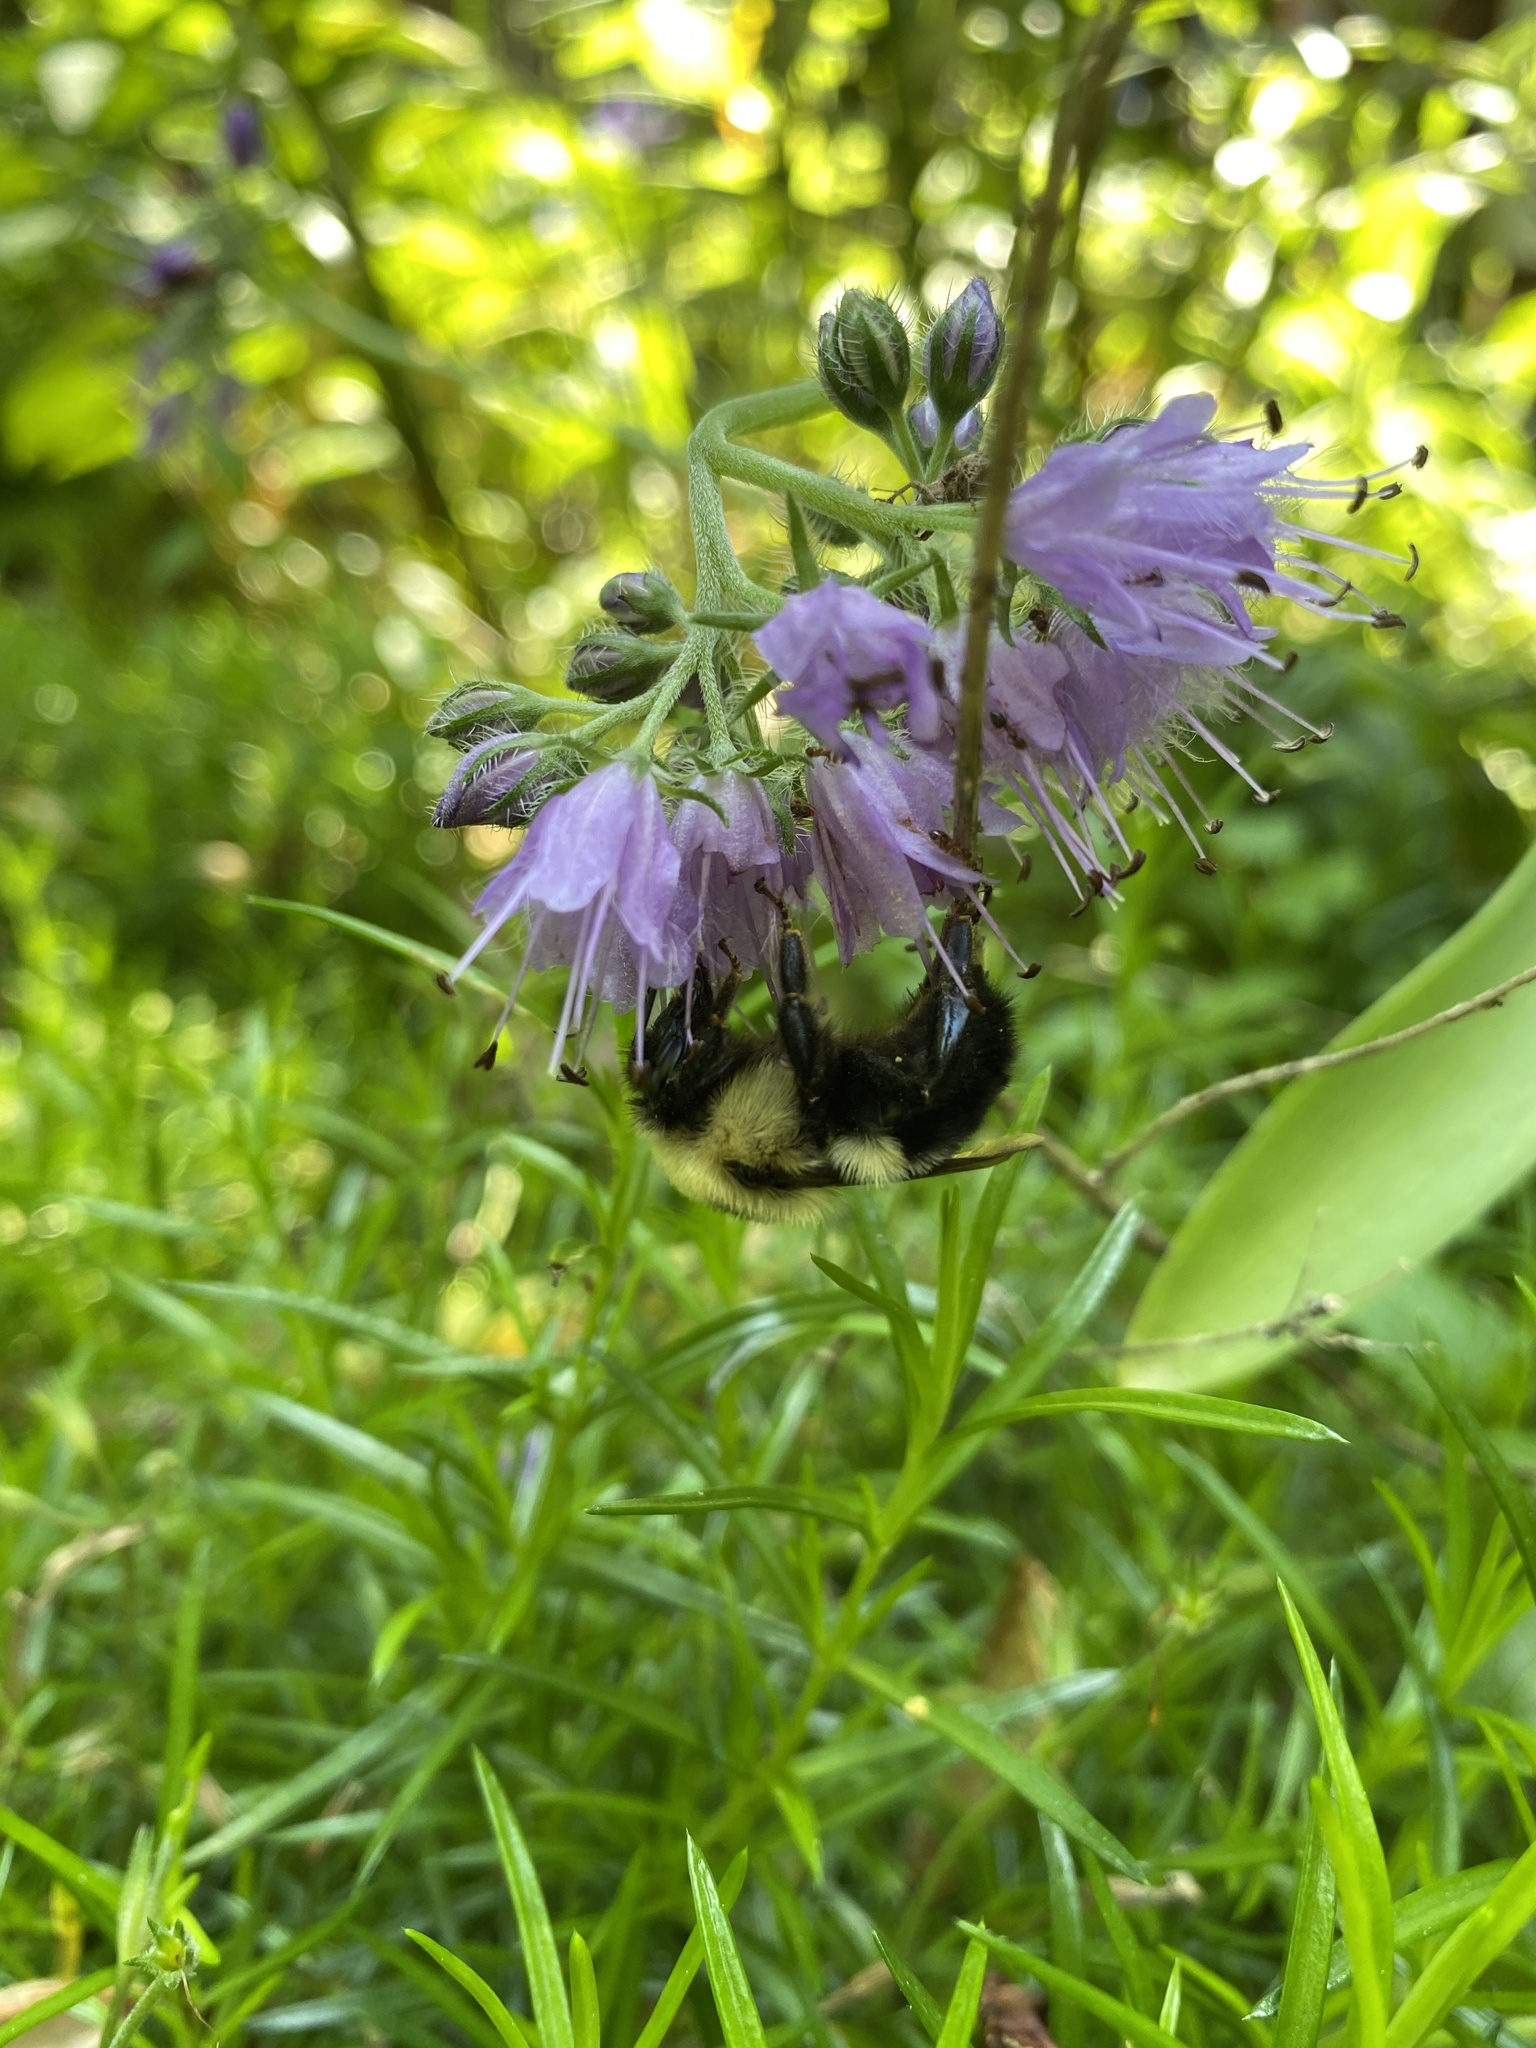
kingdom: Animalia
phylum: Arthropoda
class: Insecta
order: Hymenoptera
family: Apidae
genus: Bombus
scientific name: Bombus bimaculatus
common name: Two-spotted bumble bee
